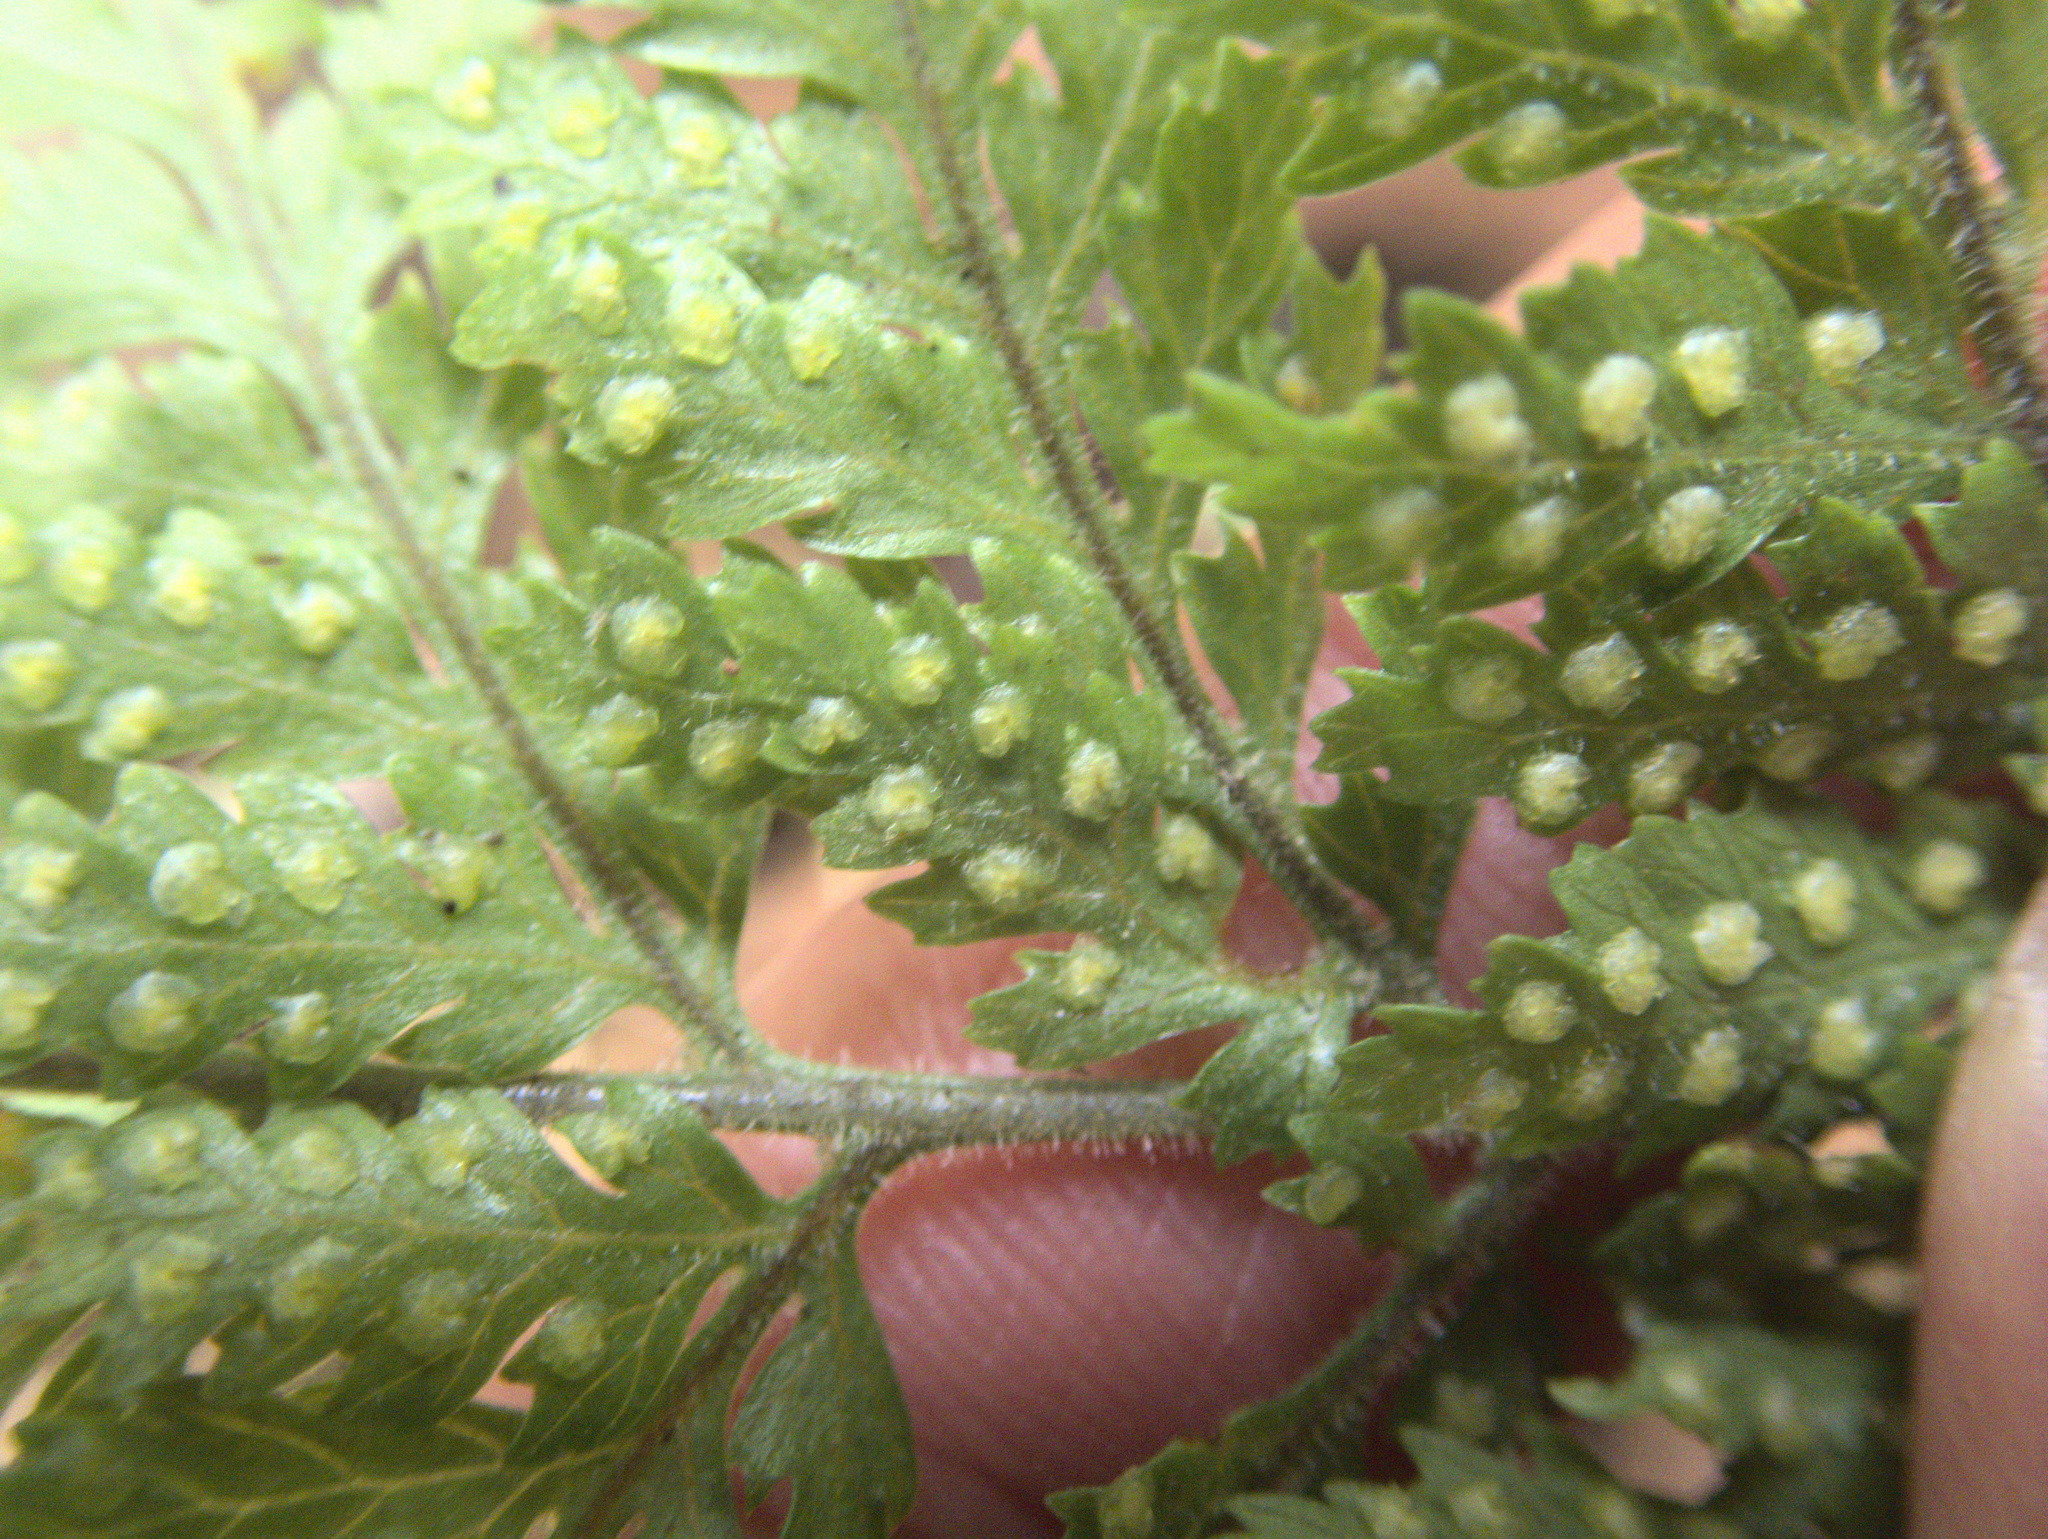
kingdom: Plantae
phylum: Tracheophyta
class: Polypodiopsida
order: Polypodiales
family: Dryopteridaceae
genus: Parapolystichum
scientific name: Parapolystichum microsorum
